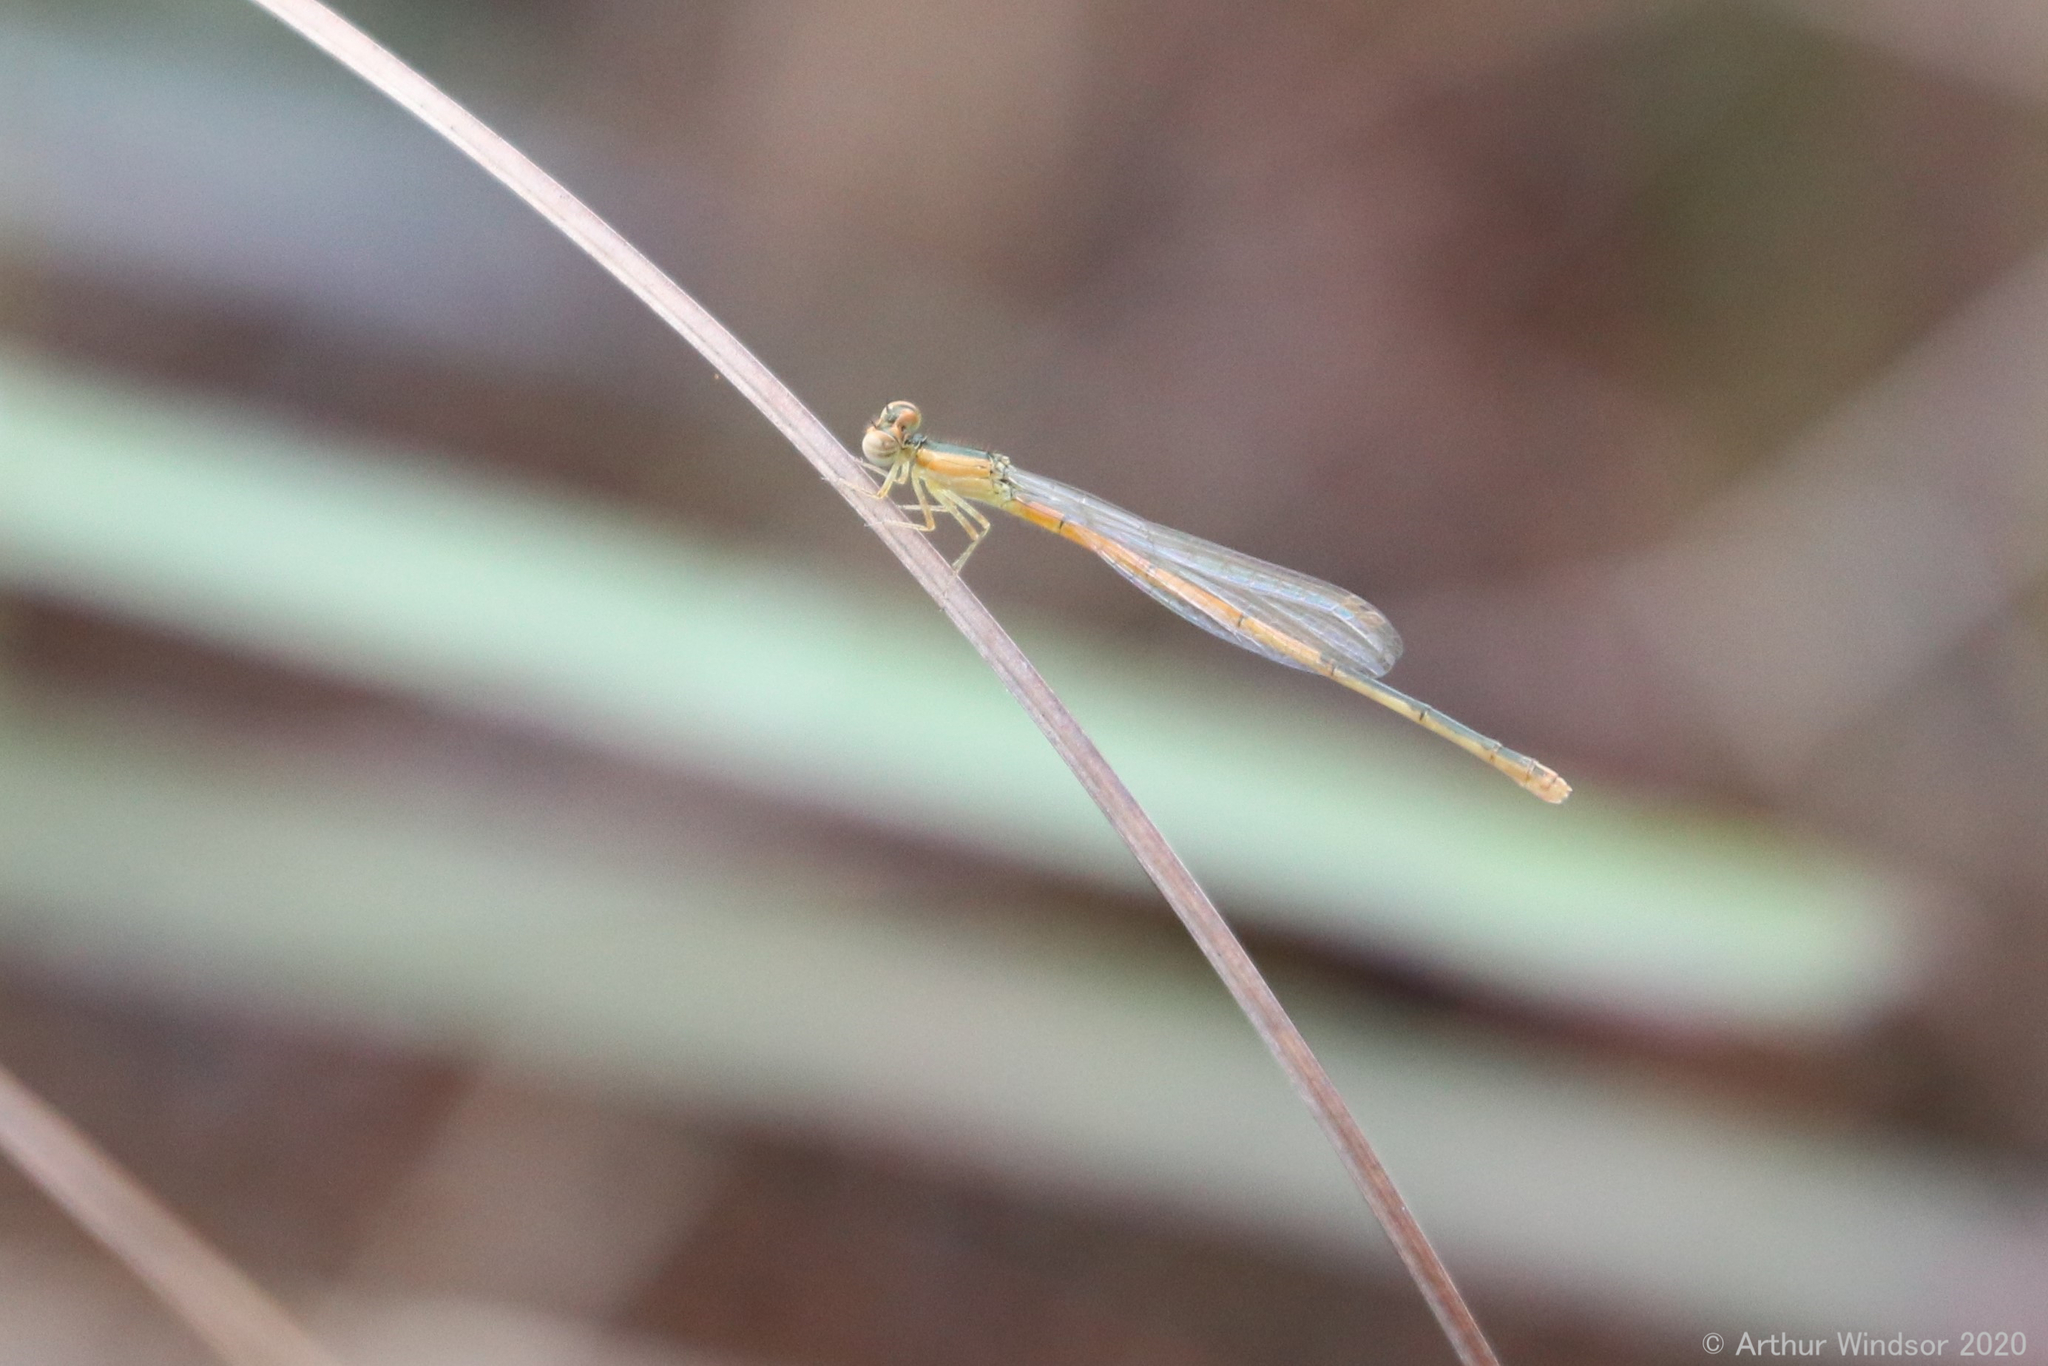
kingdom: Animalia
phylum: Arthropoda
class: Insecta
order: Odonata
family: Coenagrionidae
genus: Ischnura
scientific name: Ischnura hastata
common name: Citrine forktail
